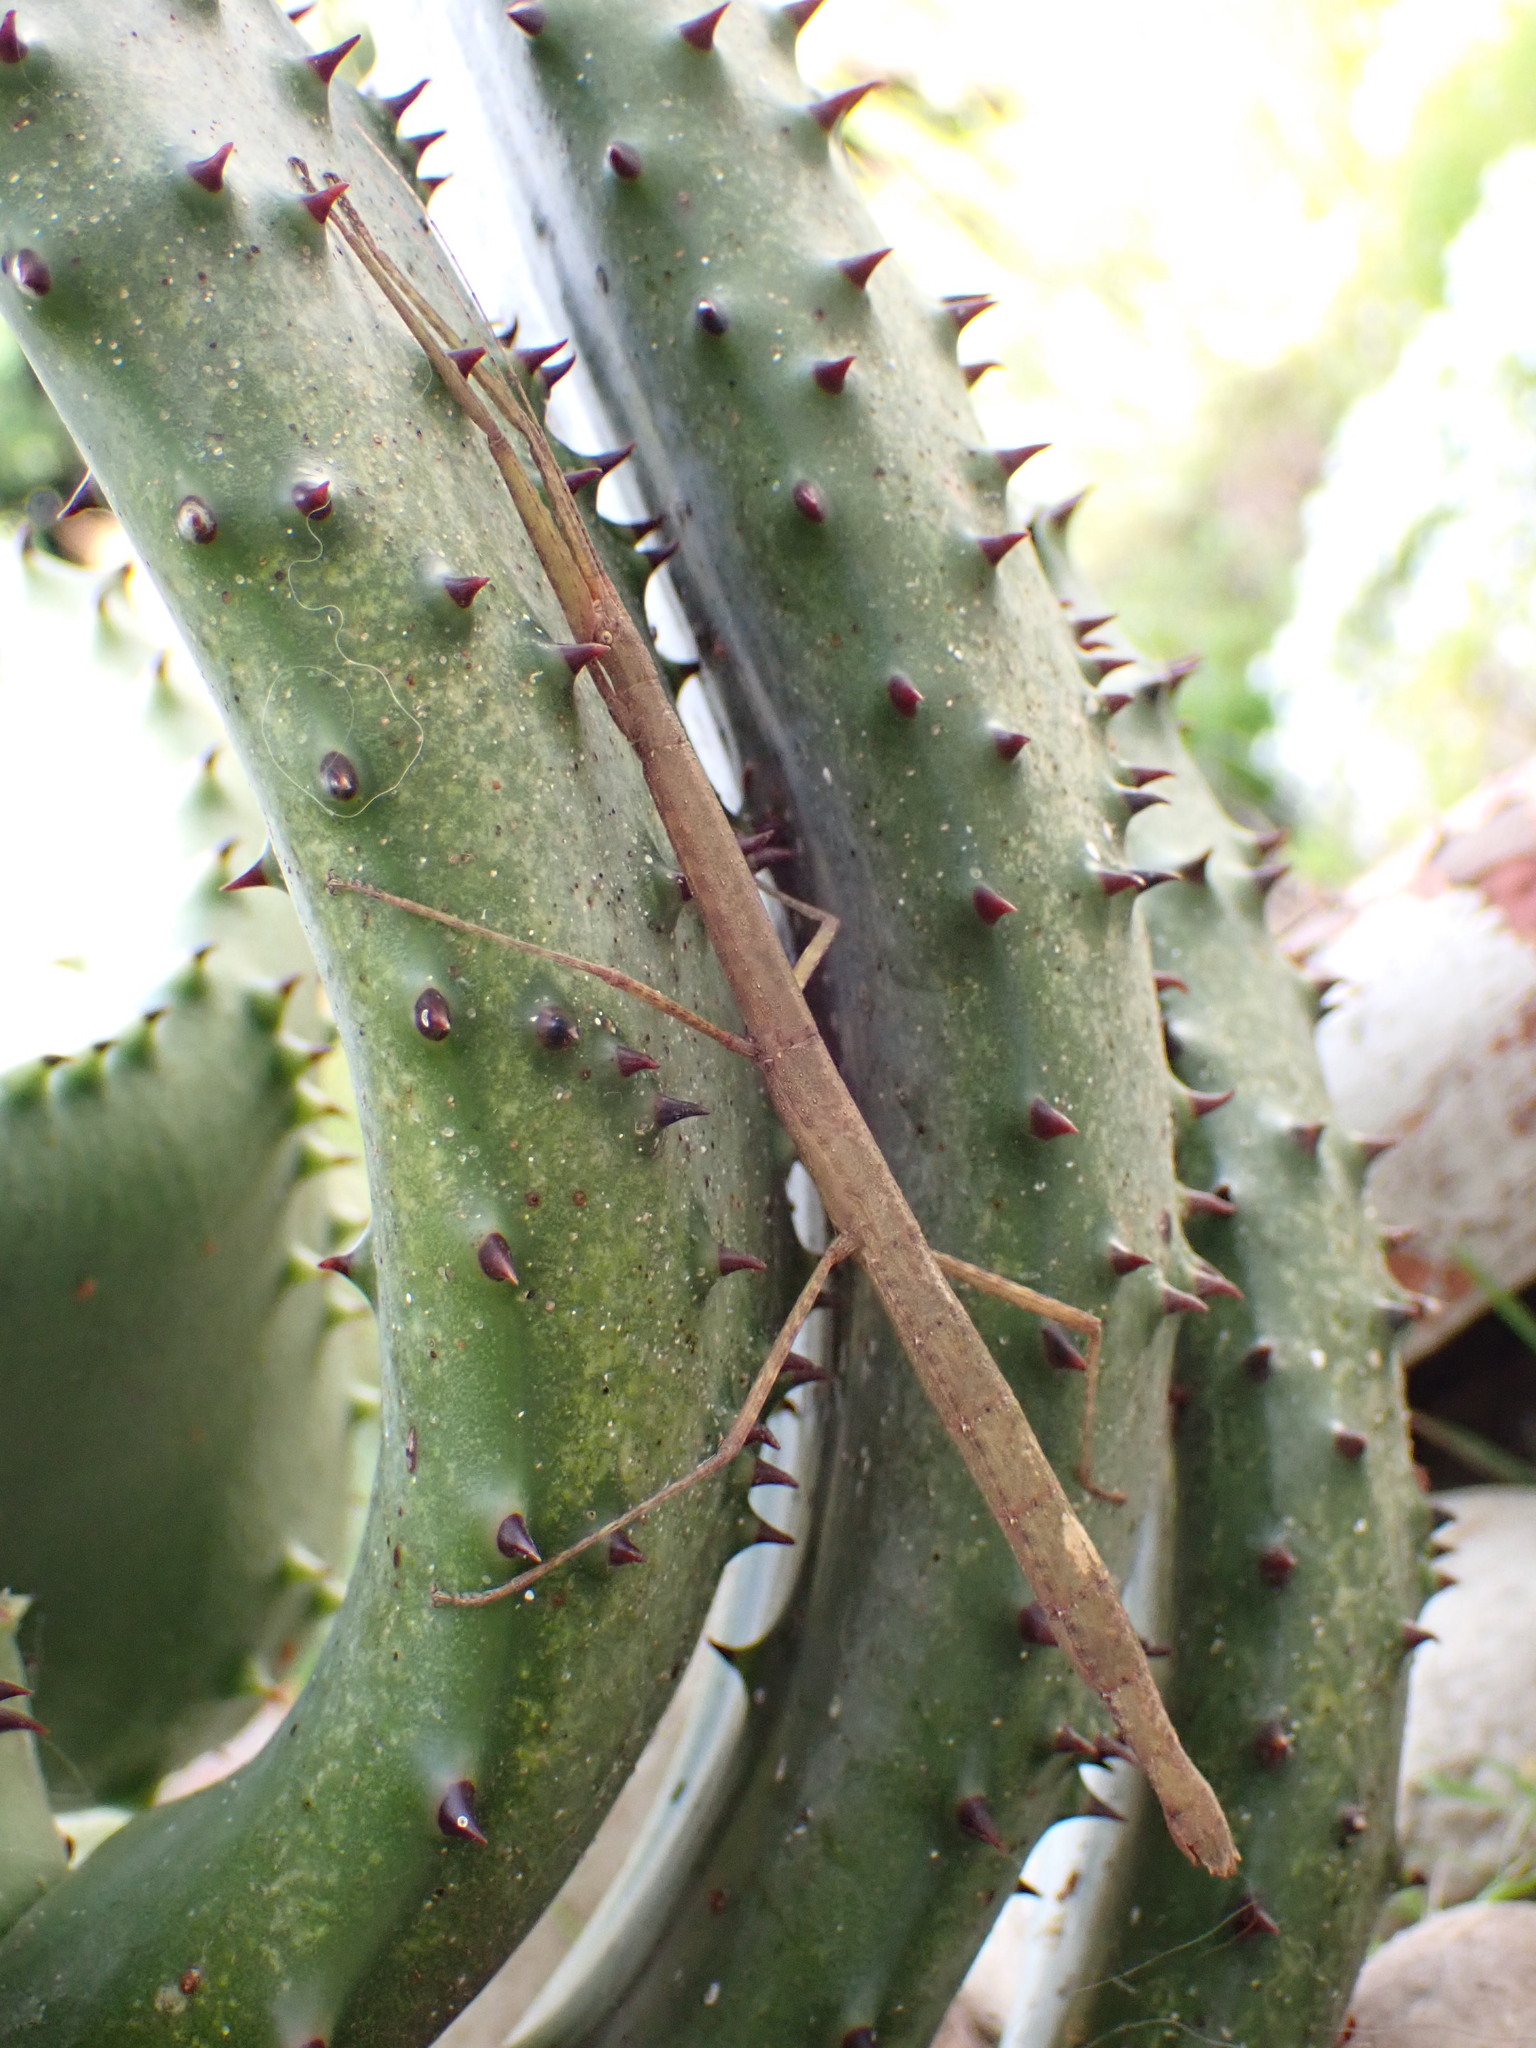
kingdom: Animalia
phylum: Arthropoda
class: Insecta
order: Phasmida
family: Lonchodidae
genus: Carausius
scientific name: Carausius morosus
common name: Indian stick insect
